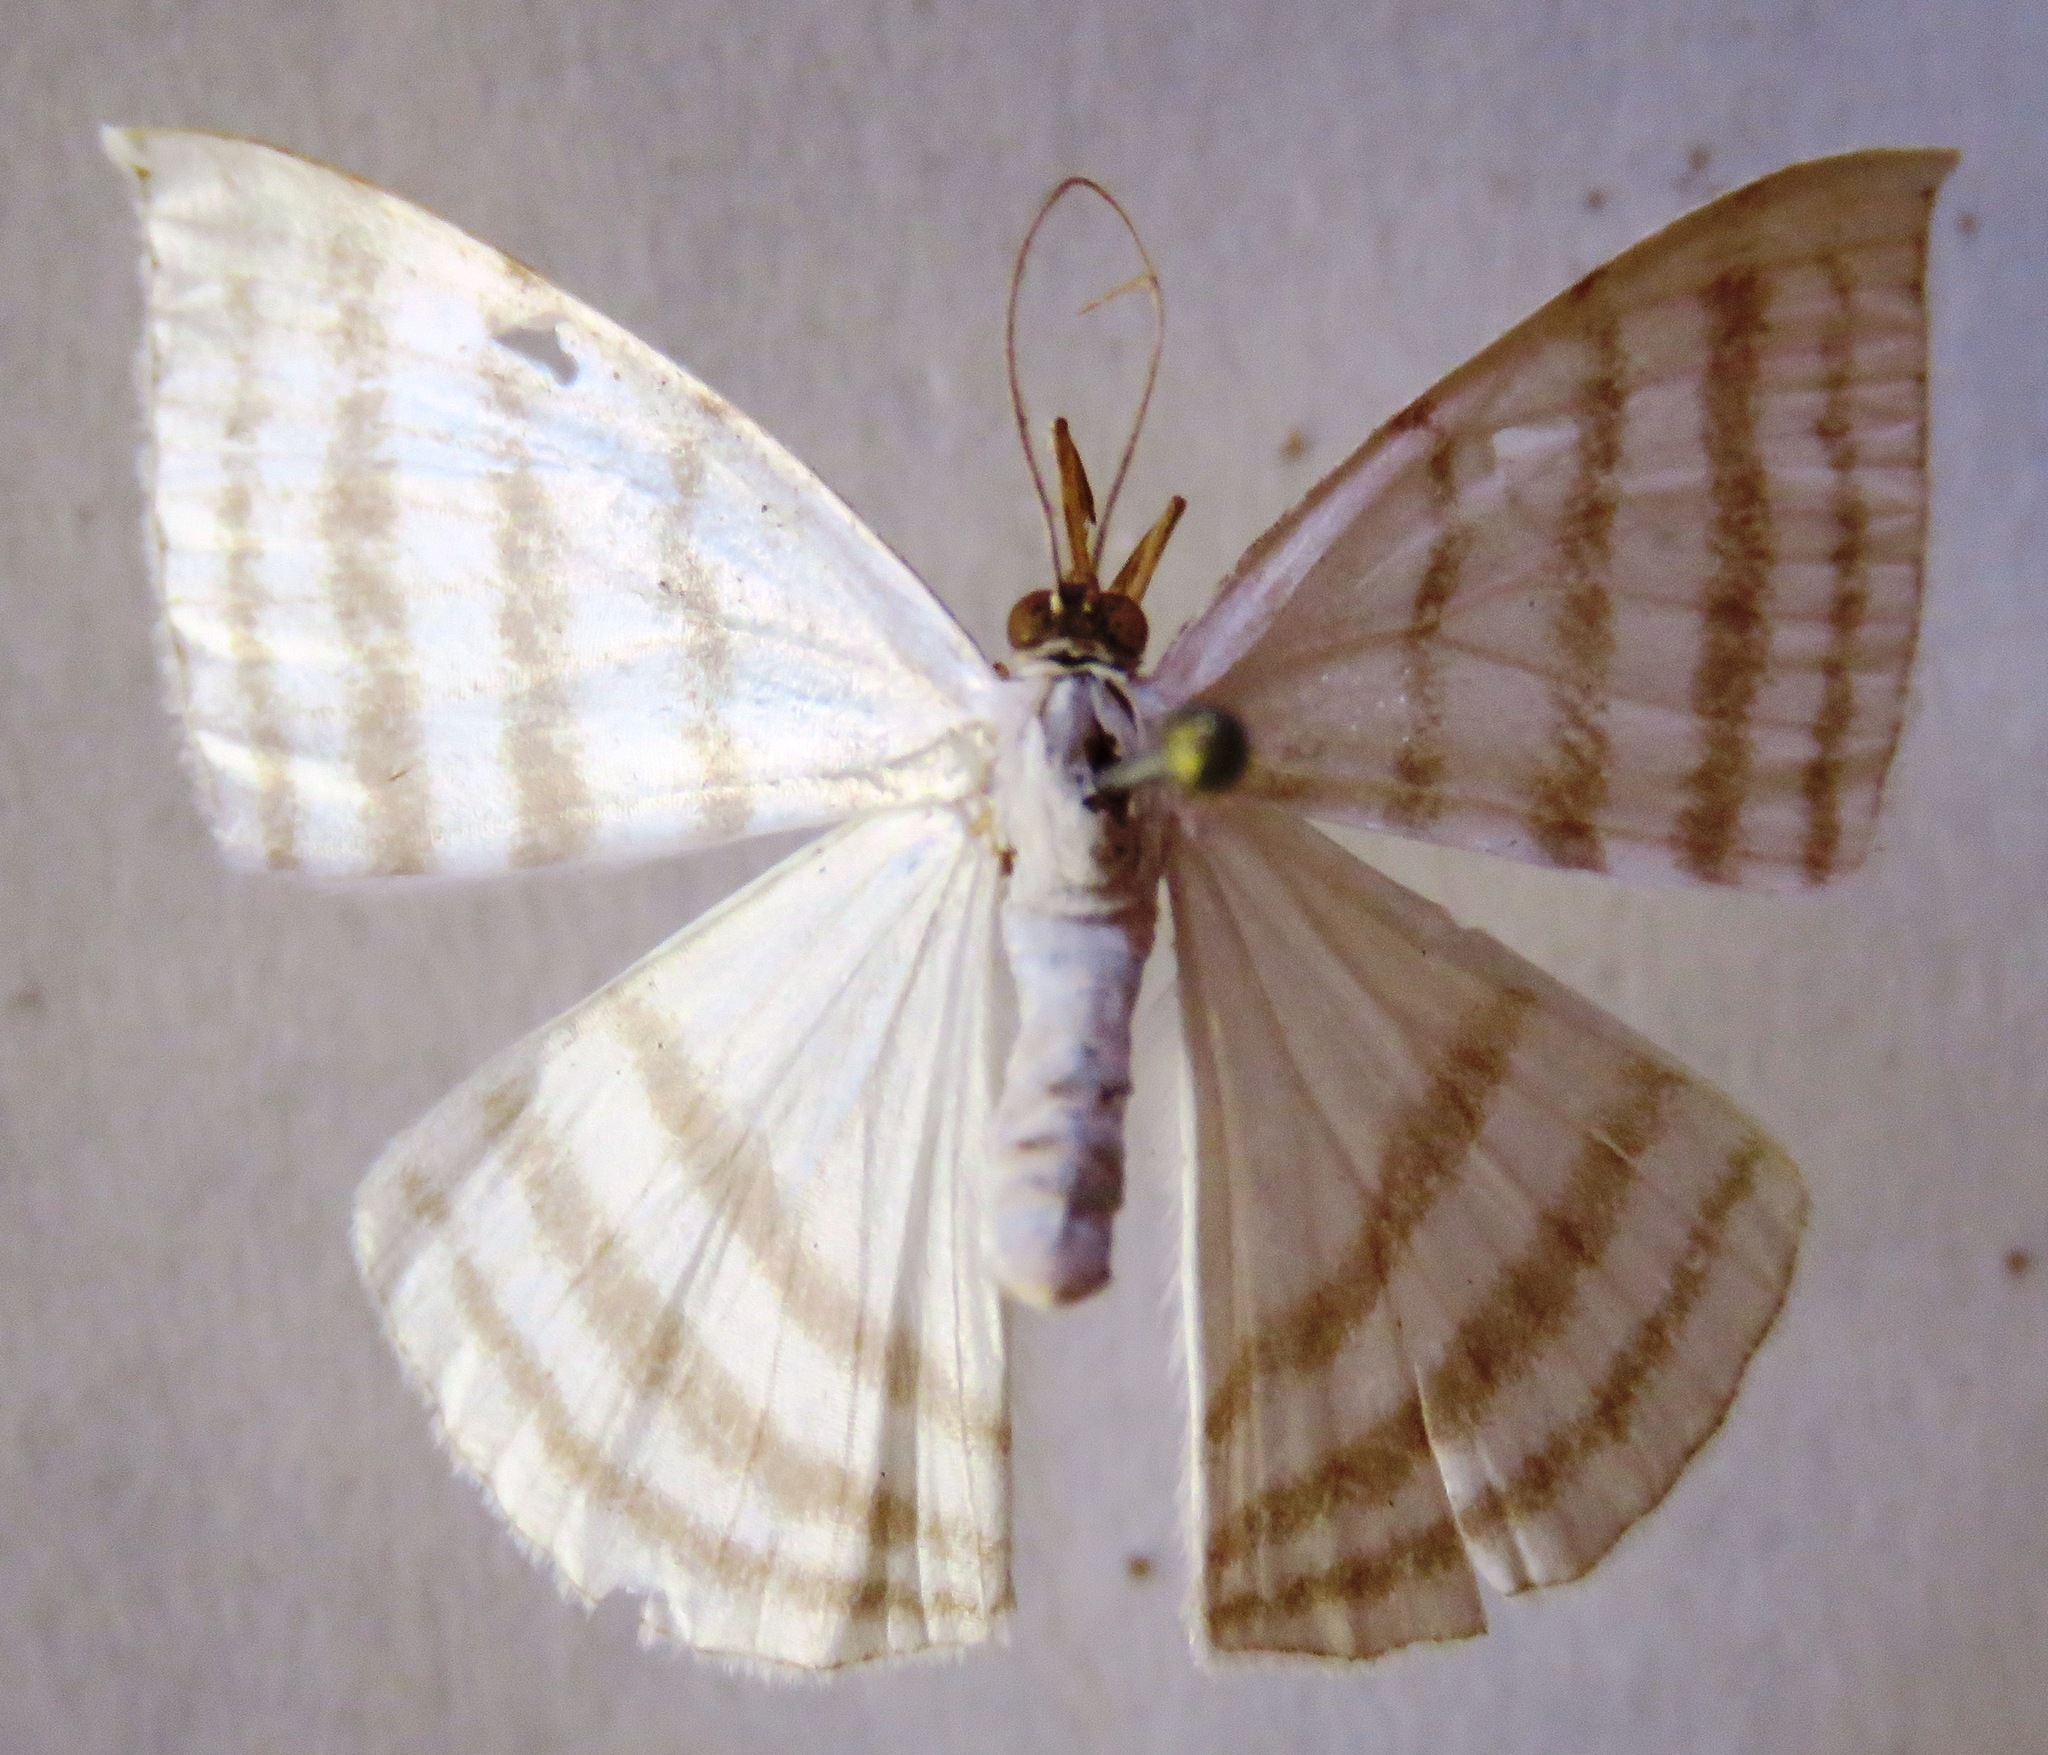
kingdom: Animalia
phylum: Arthropoda
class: Insecta
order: Lepidoptera
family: Geometridae
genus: Racasta
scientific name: Racasta spatiaria
